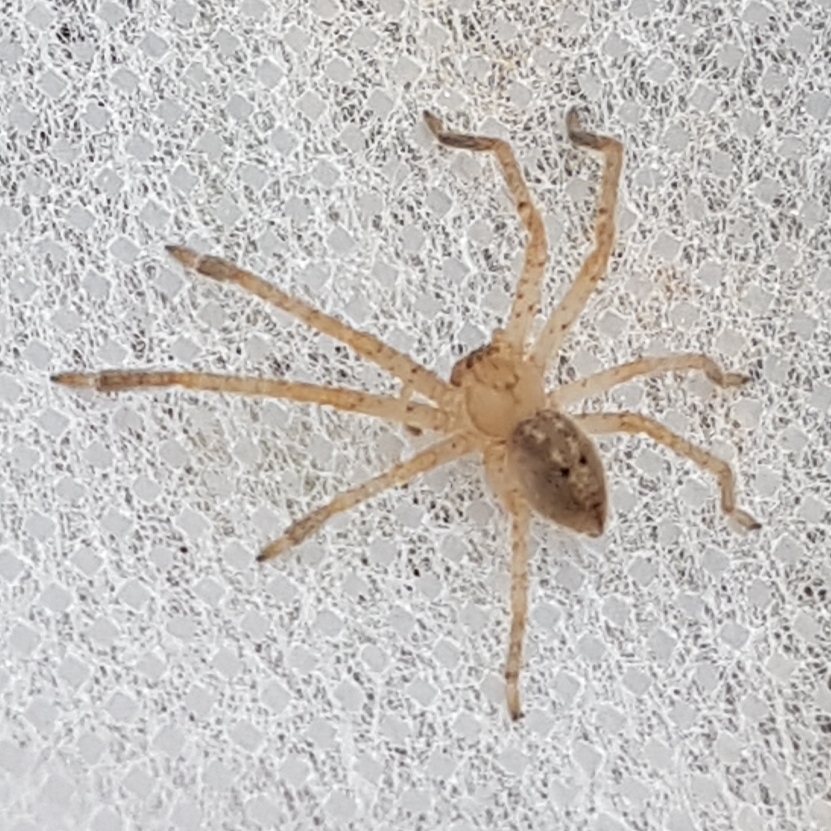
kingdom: Animalia
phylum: Arthropoda
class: Arachnida
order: Araneae
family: Sparassidae
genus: Olios
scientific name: Olios argelasius
